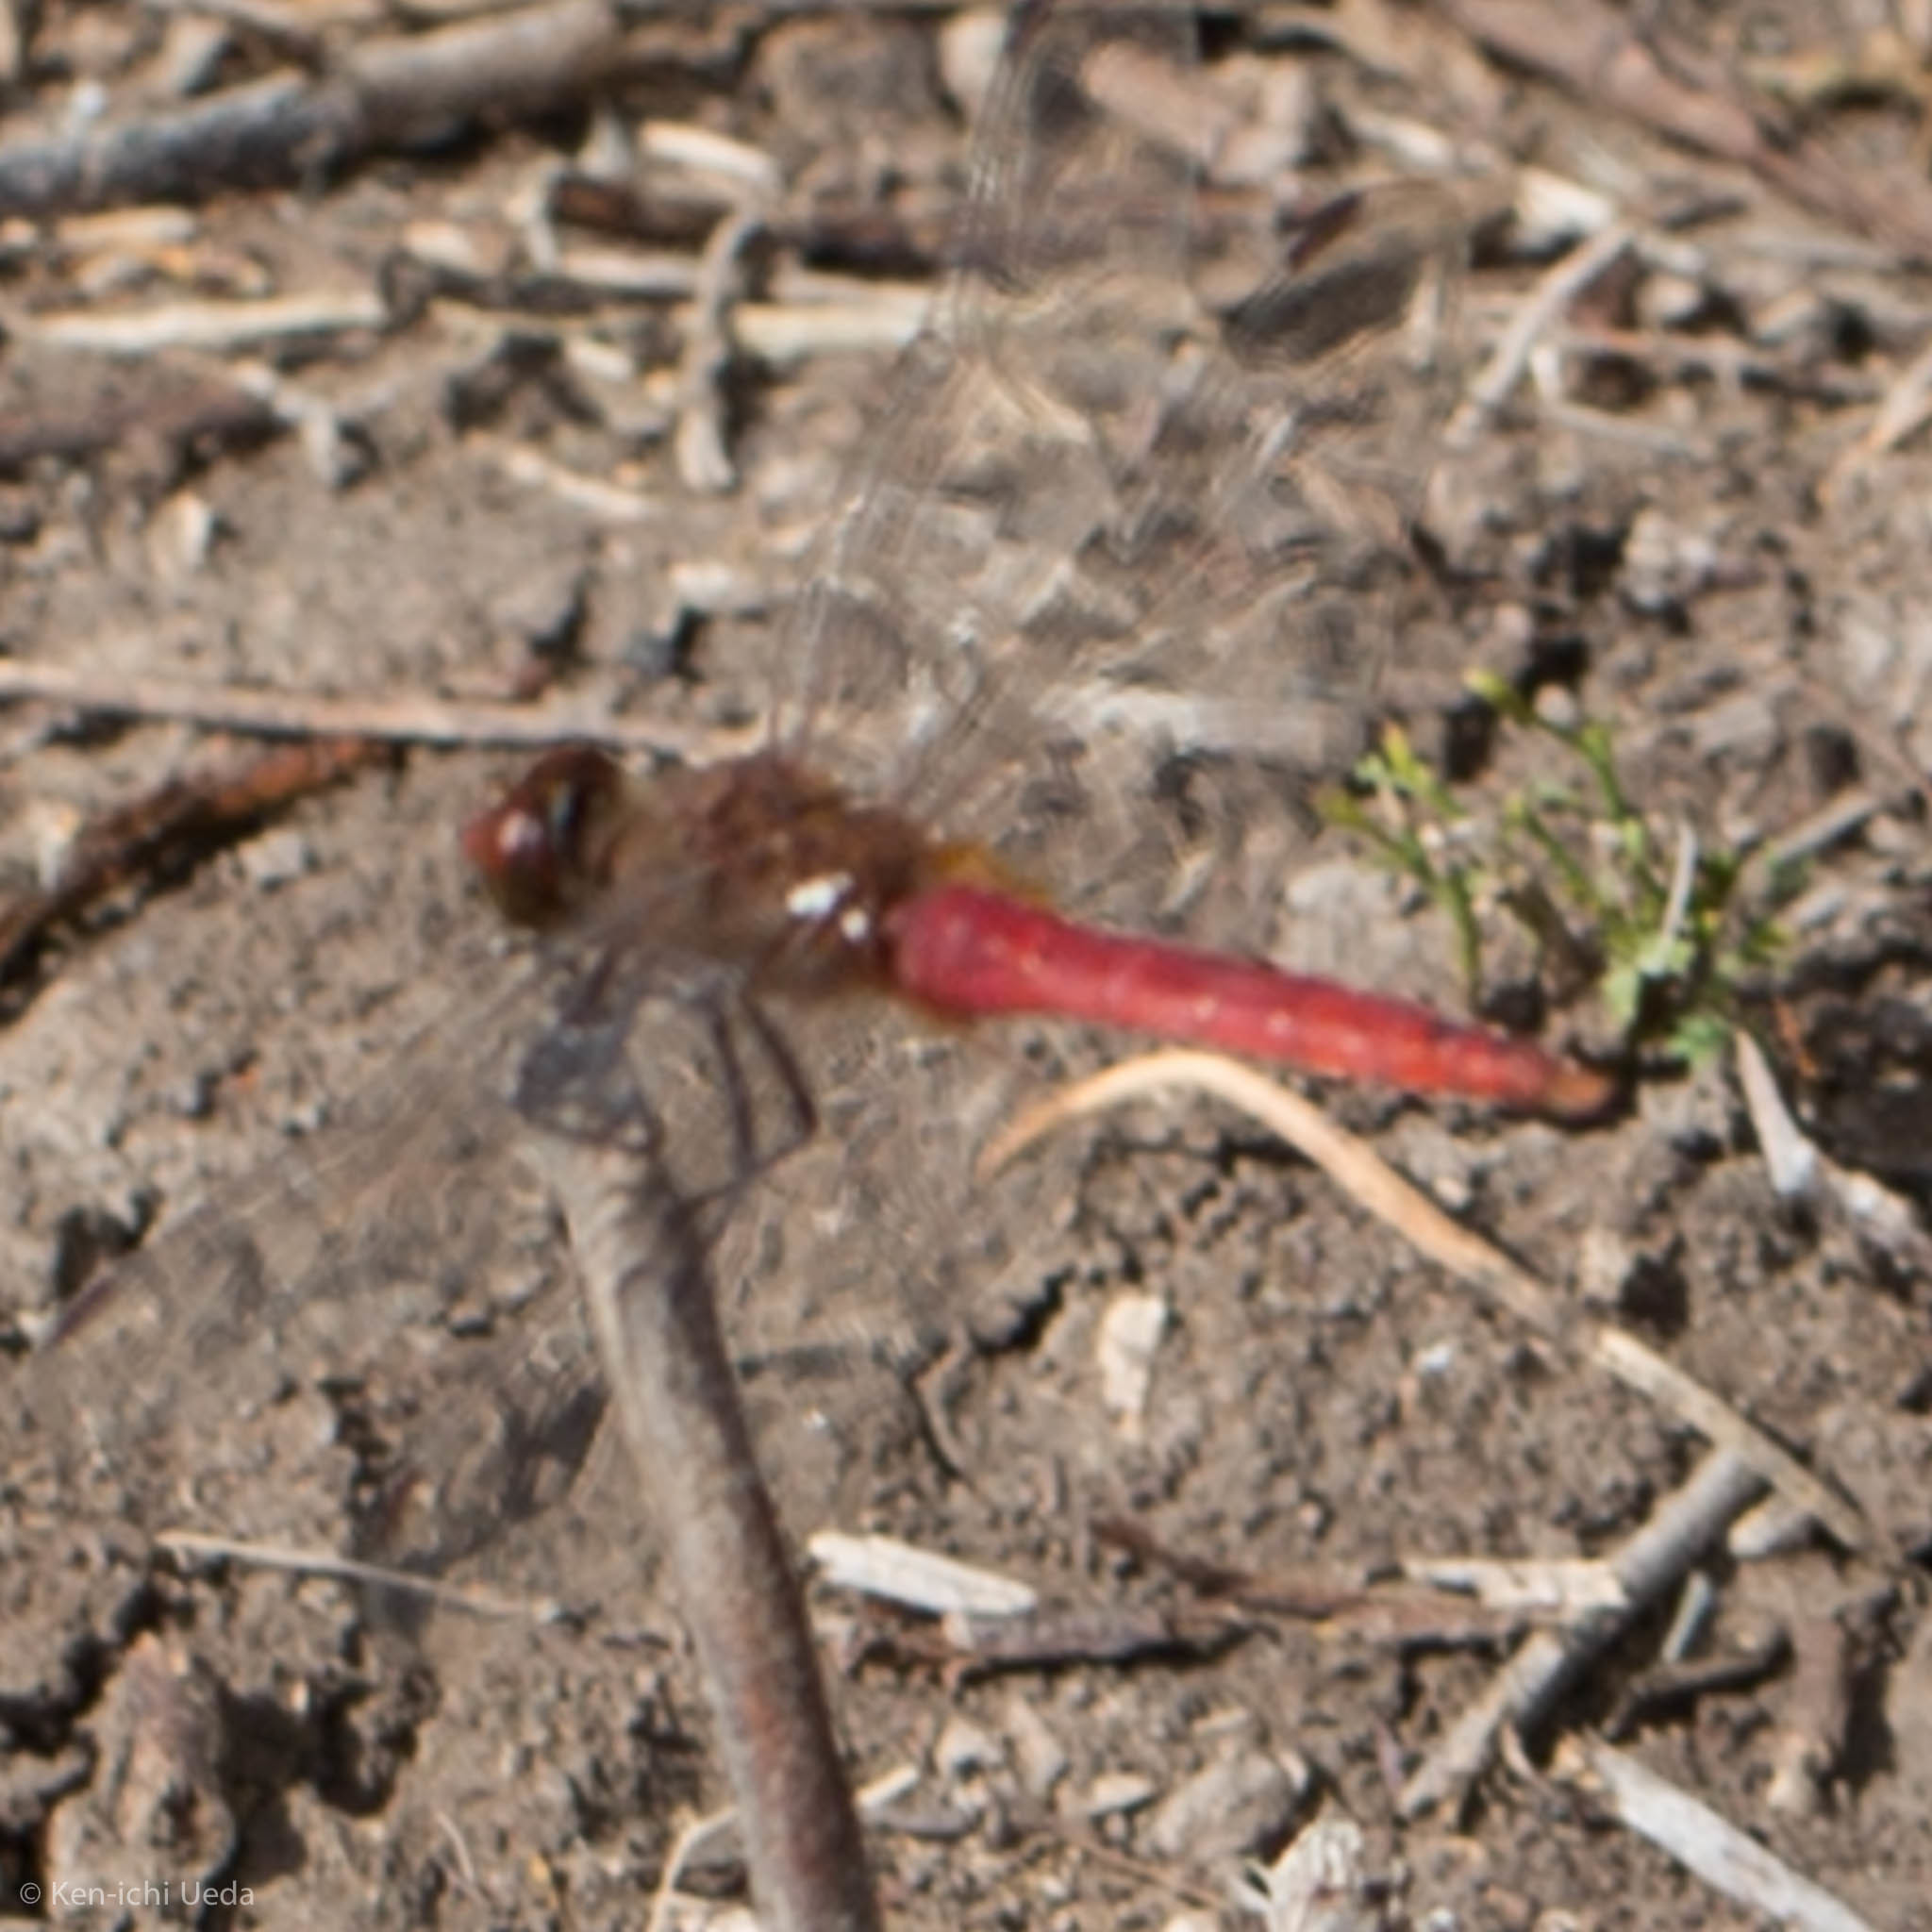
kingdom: Animalia
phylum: Arthropoda
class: Insecta
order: Odonata
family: Libellulidae
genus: Brachymesia
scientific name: Brachymesia furcata
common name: Red-taled pennant
